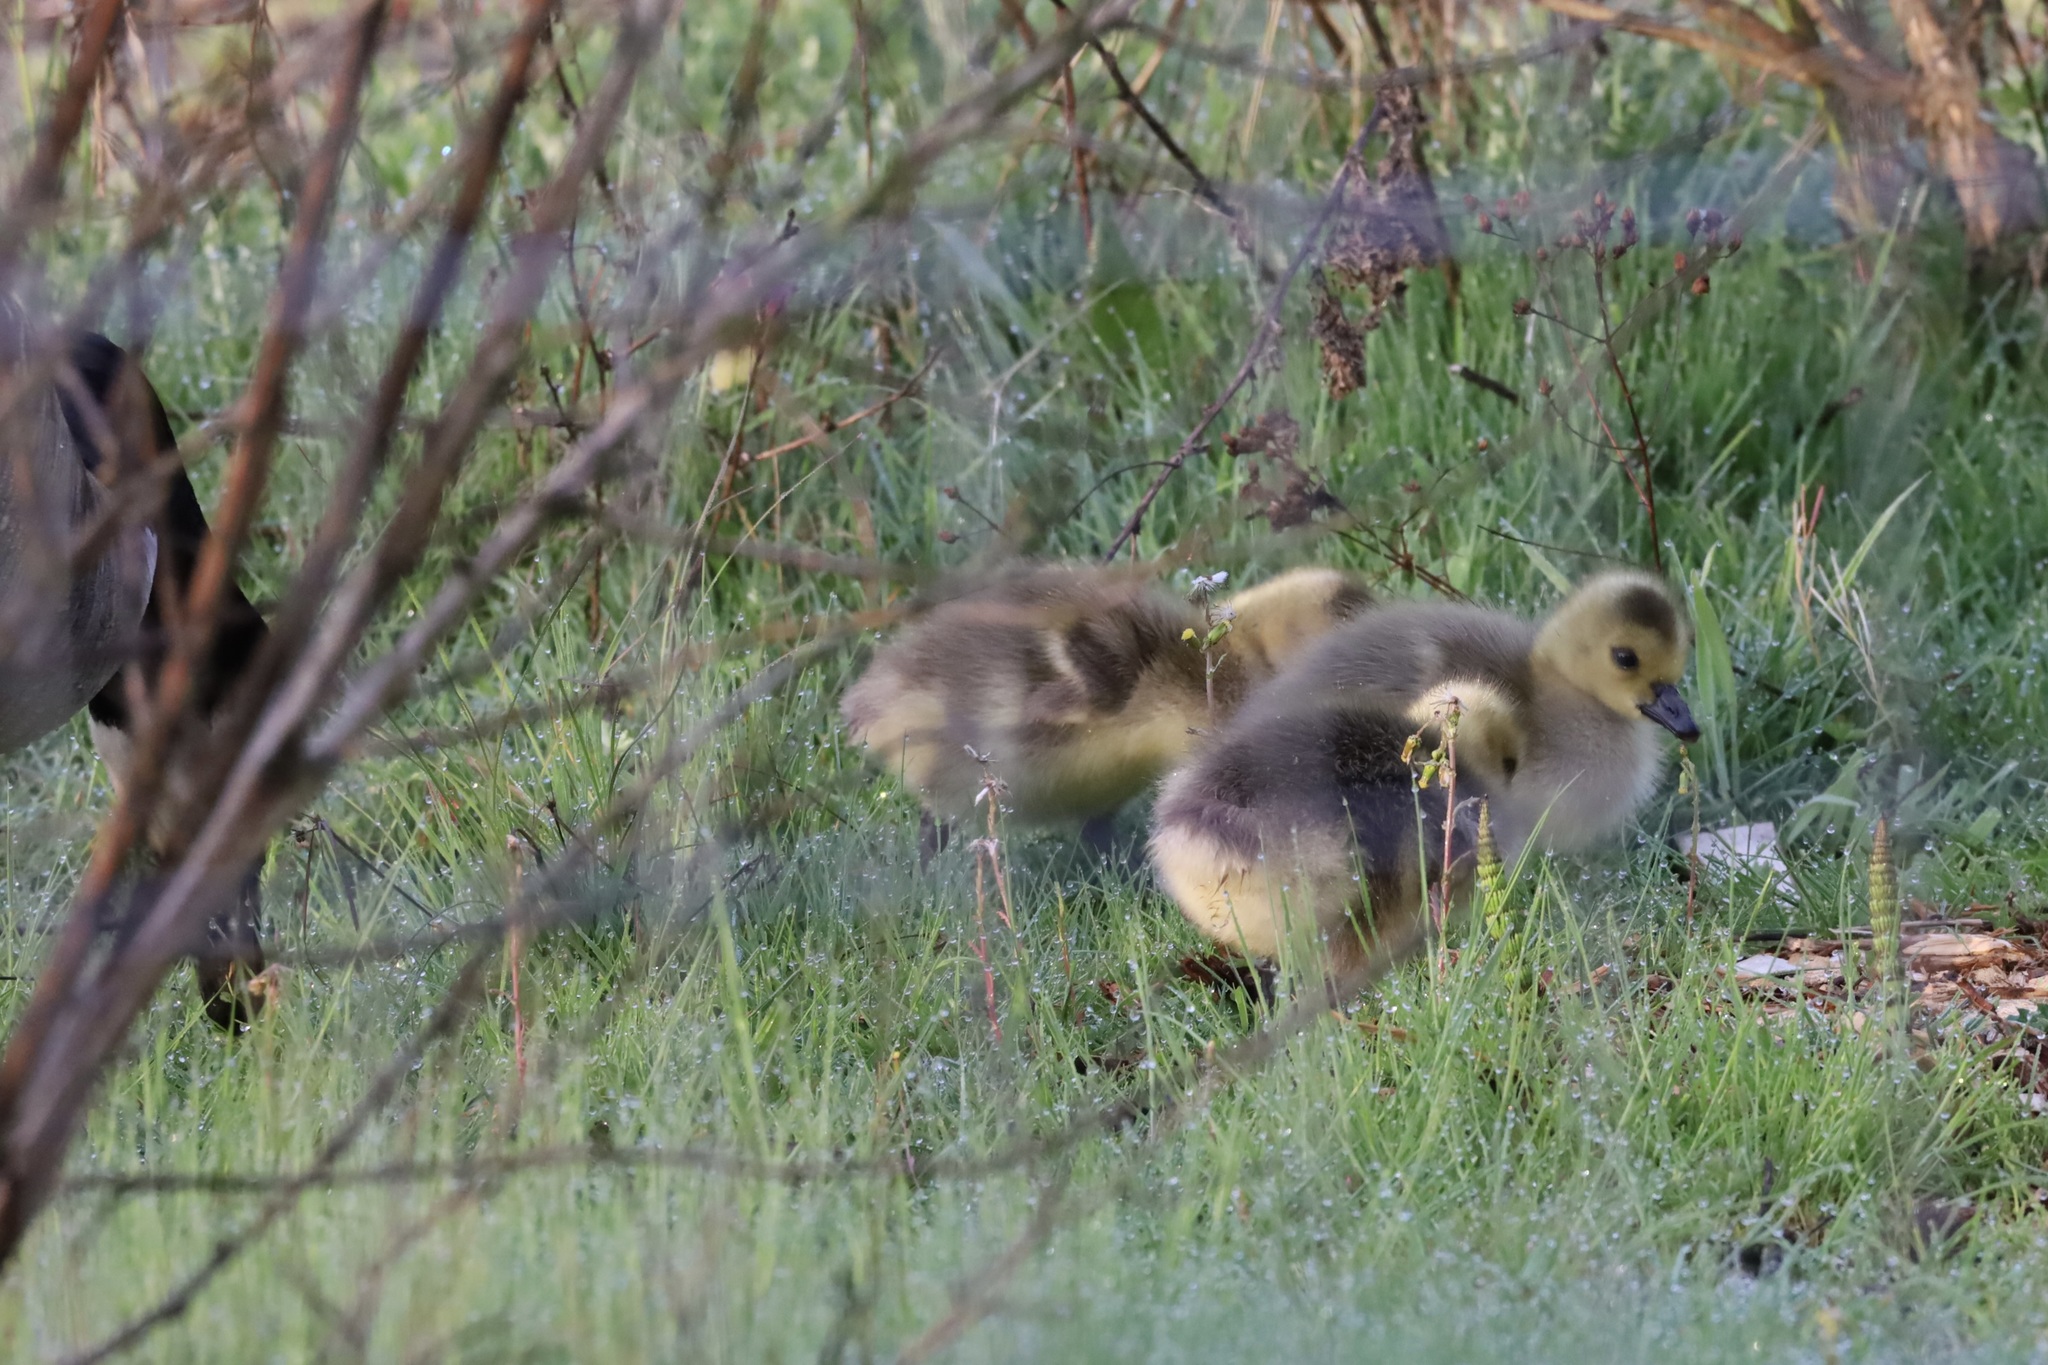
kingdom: Animalia
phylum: Chordata
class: Aves
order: Anseriformes
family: Anatidae
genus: Branta
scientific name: Branta canadensis
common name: Canada goose
